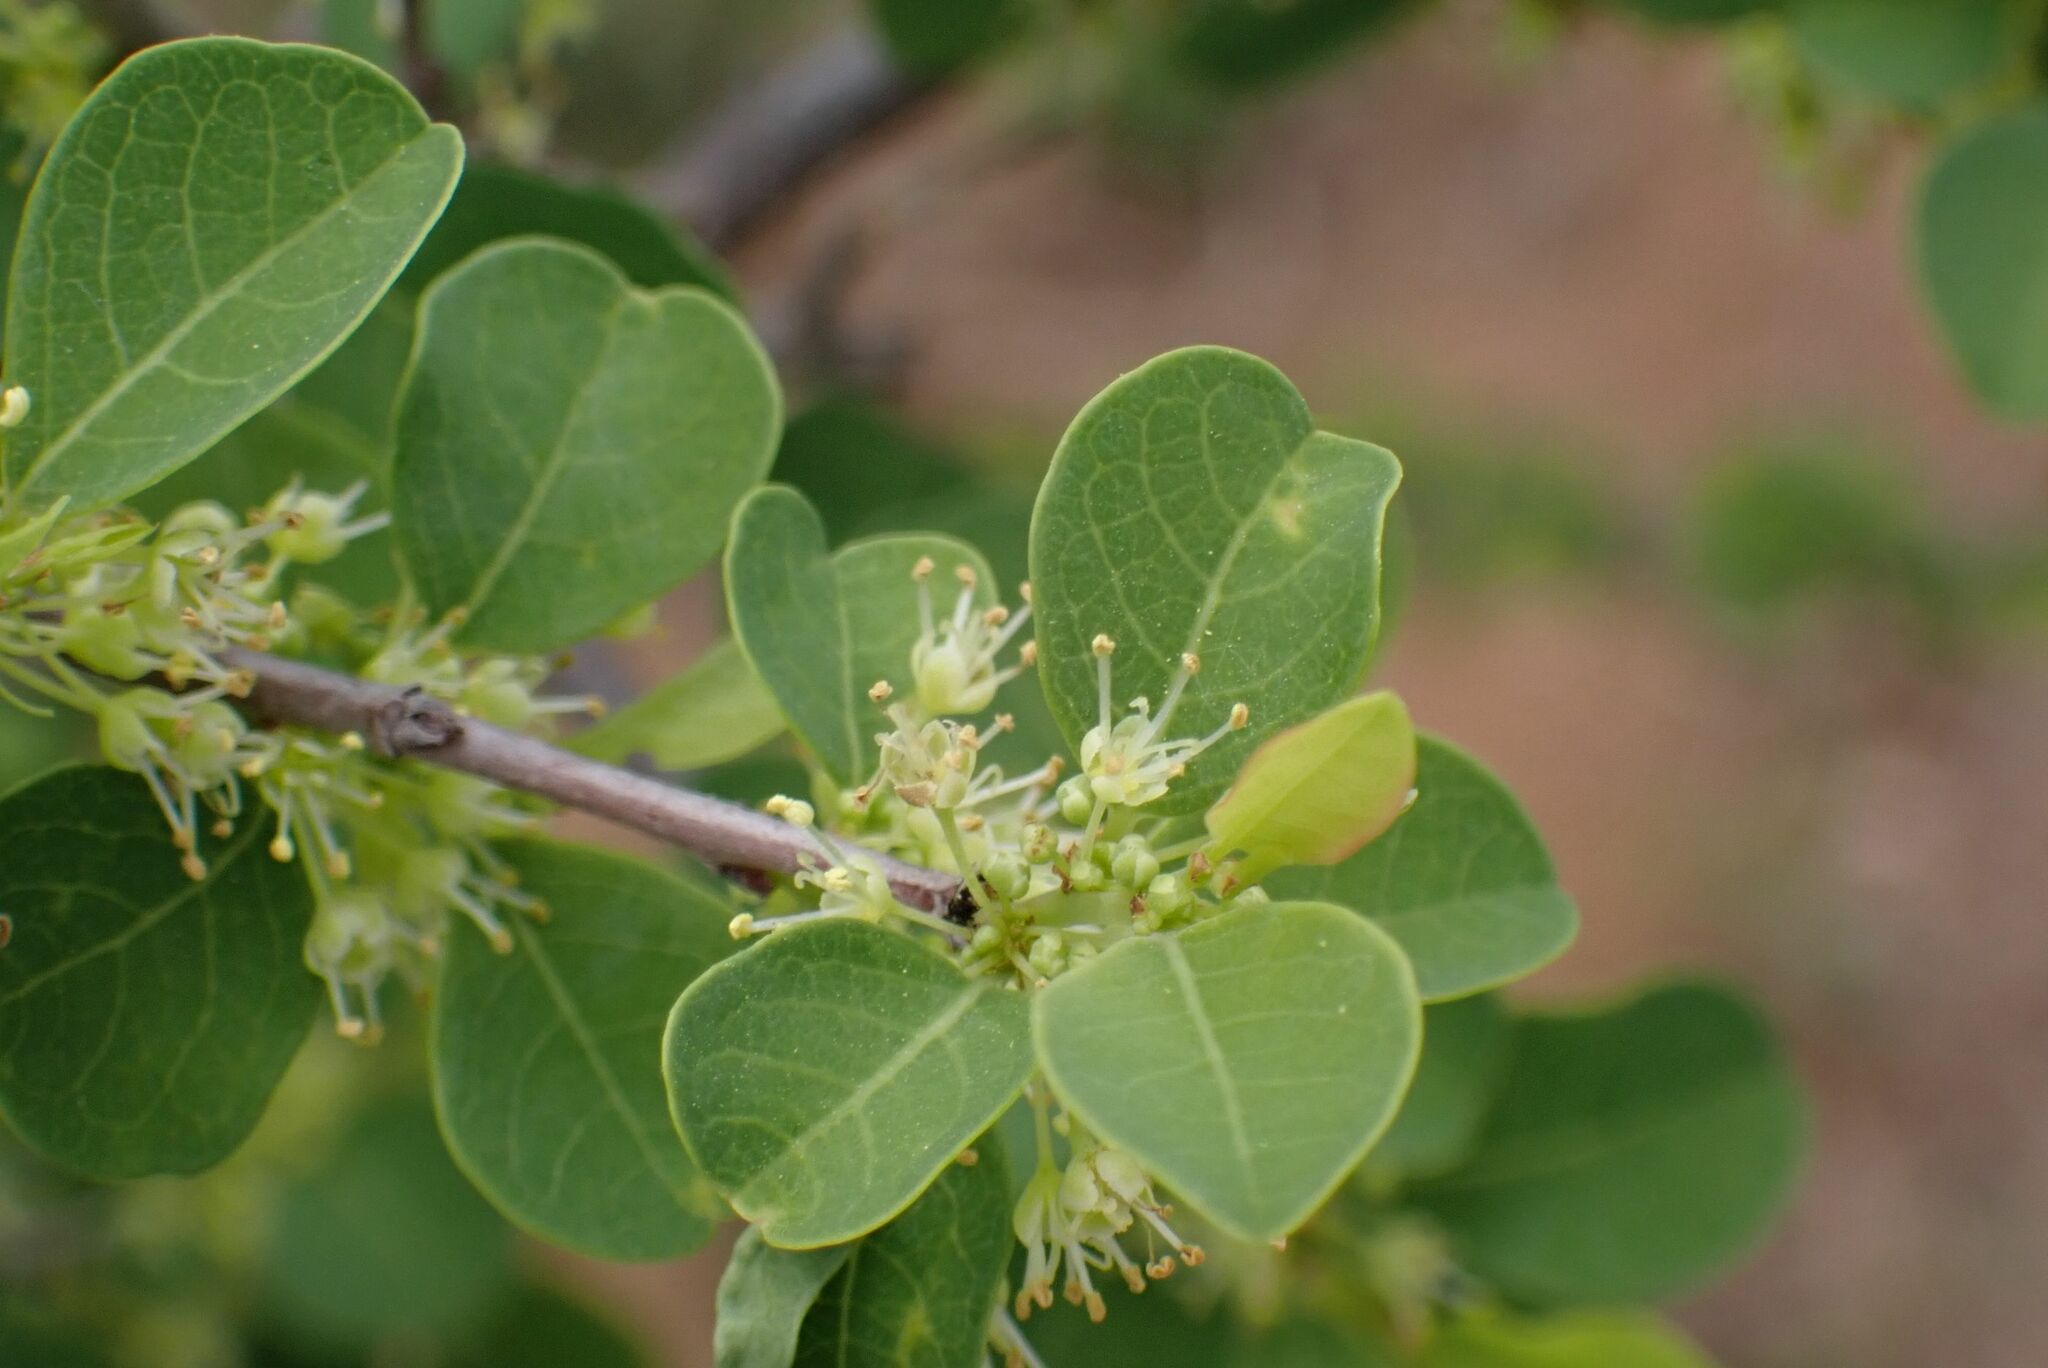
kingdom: Plantae
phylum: Tracheophyta
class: Magnoliopsida
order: Malpighiales
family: Phyllanthaceae
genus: Flueggea
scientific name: Flueggea virosa
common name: Common bushweed
